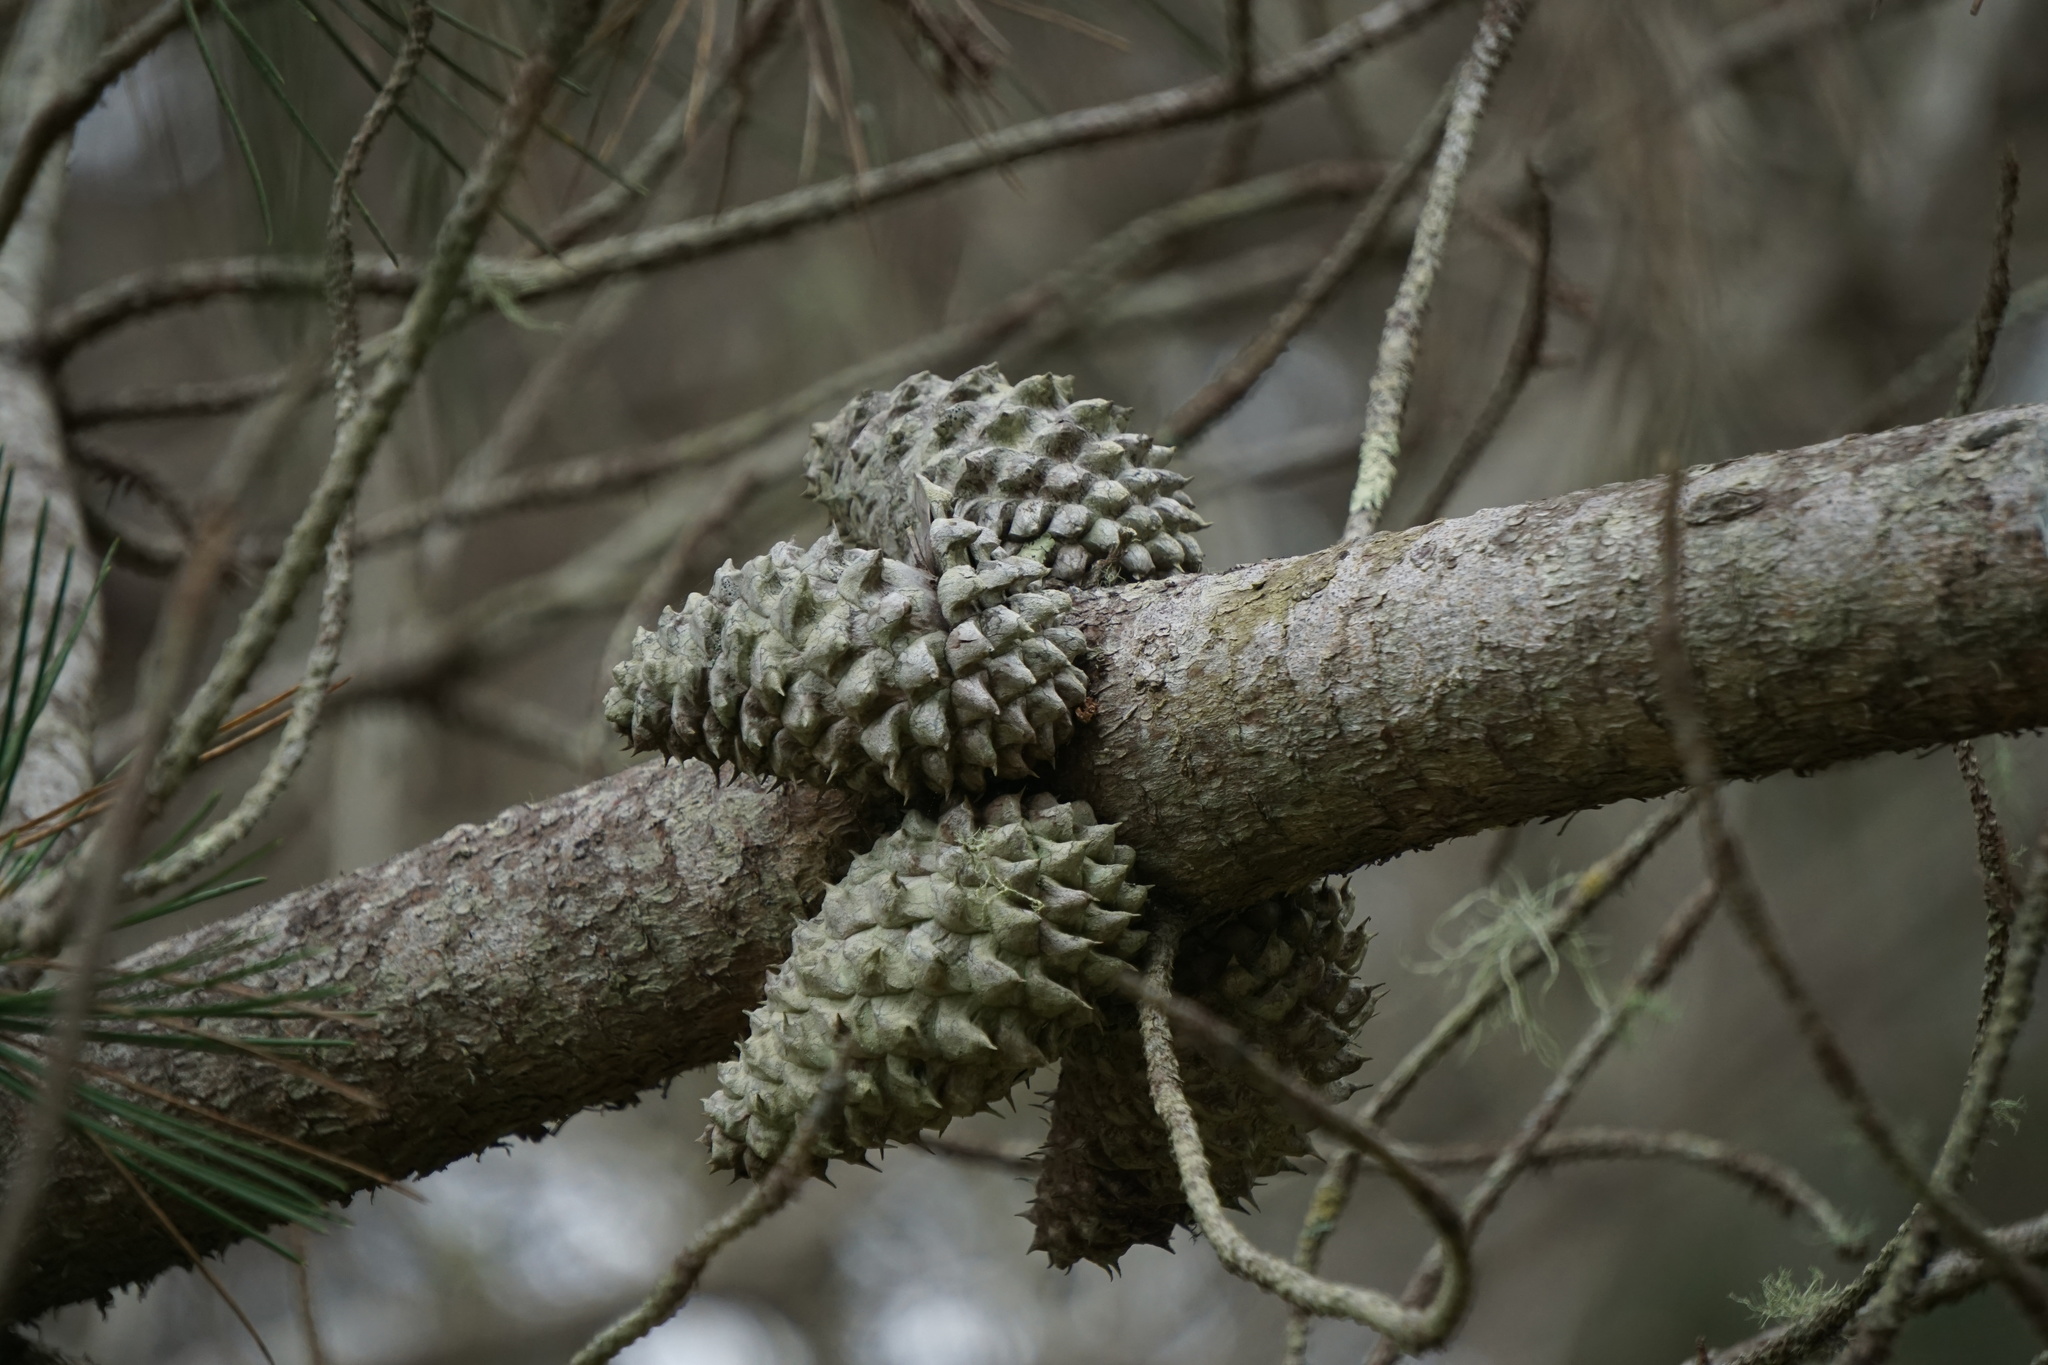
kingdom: Plantae
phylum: Tracheophyta
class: Pinopsida
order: Pinales
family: Pinaceae
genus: Pinus
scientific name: Pinus muricata
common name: Bishop pine
